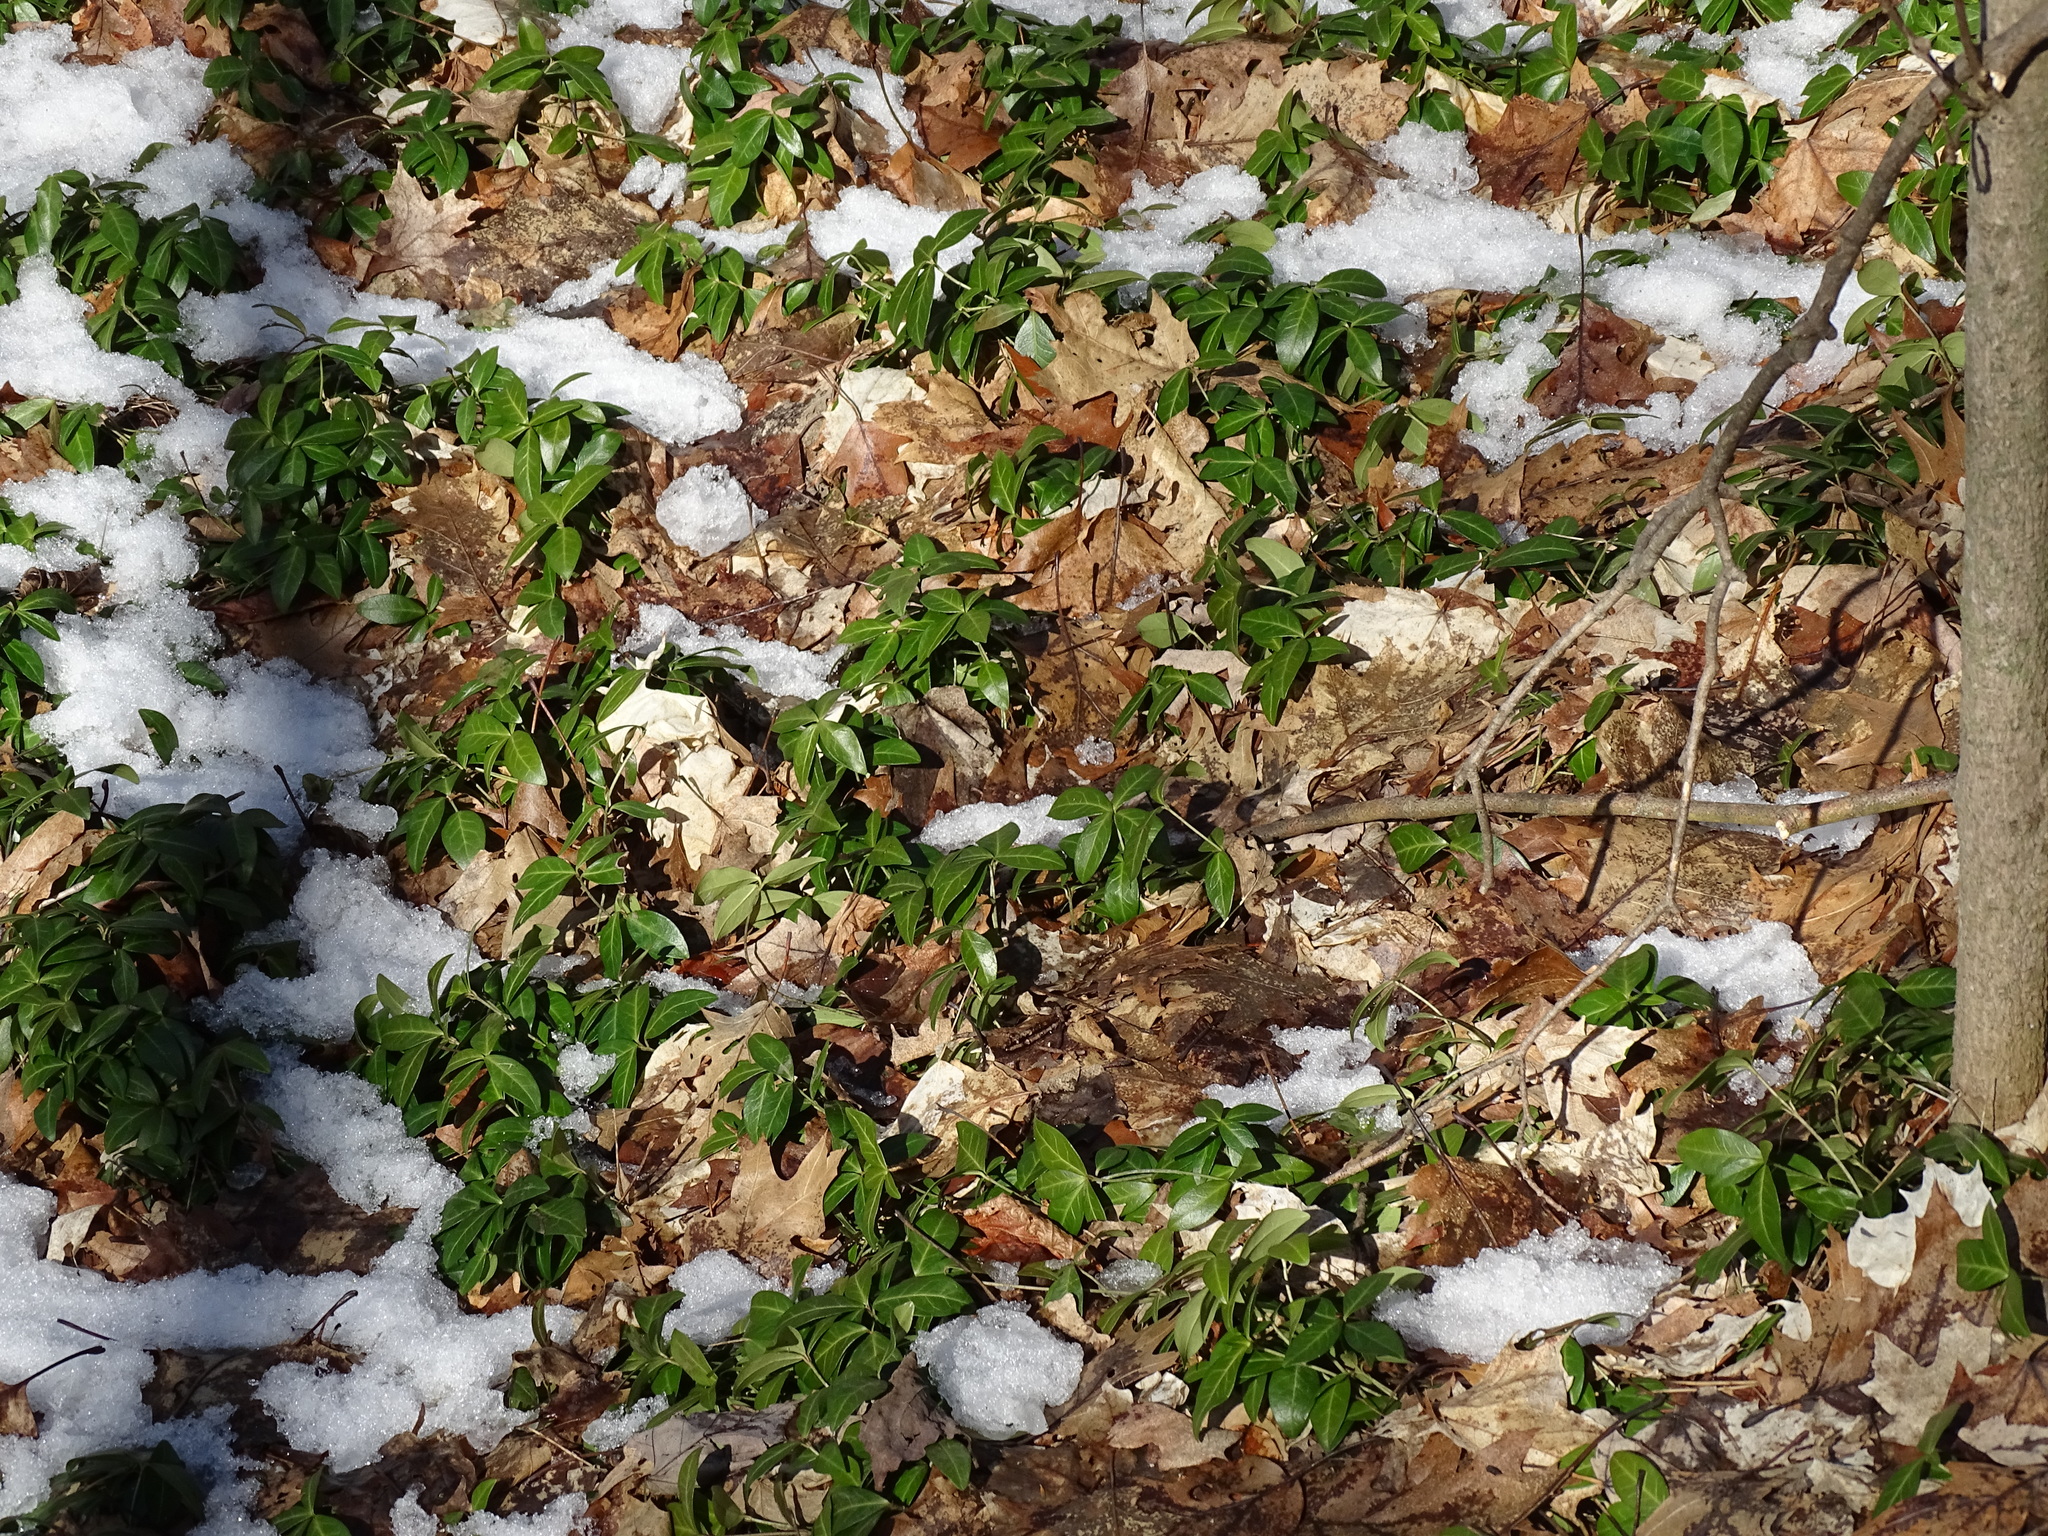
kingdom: Plantae
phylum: Tracheophyta
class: Magnoliopsida
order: Gentianales
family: Apocynaceae
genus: Vinca
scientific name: Vinca minor
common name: Lesser periwinkle
